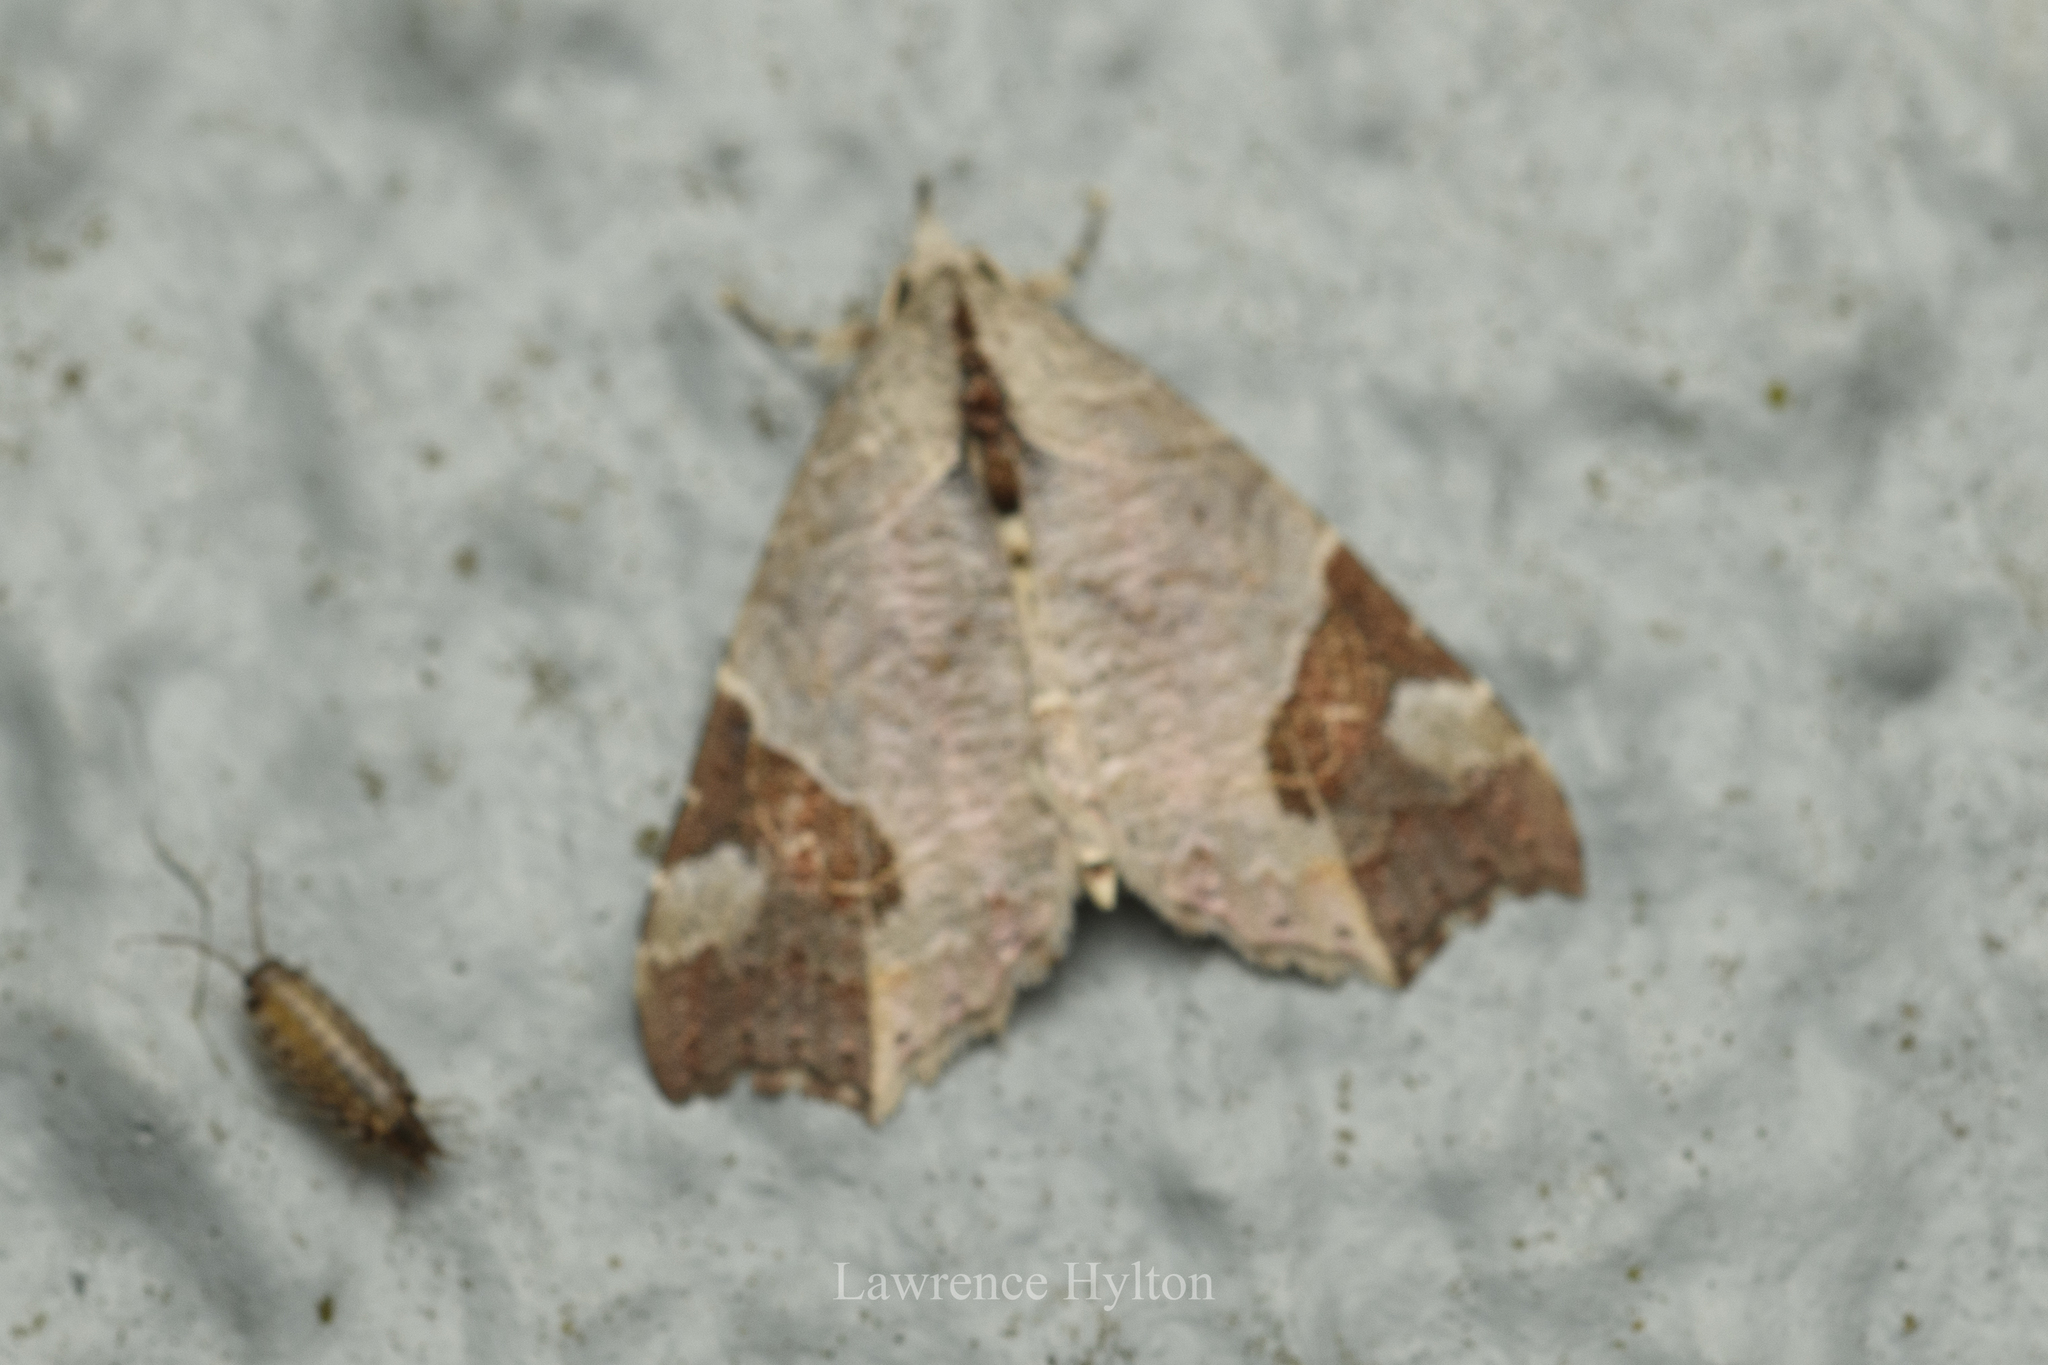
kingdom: Animalia
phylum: Arthropoda
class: Insecta
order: Lepidoptera
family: Erebidae
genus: Tamba
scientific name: Tamba apicata
